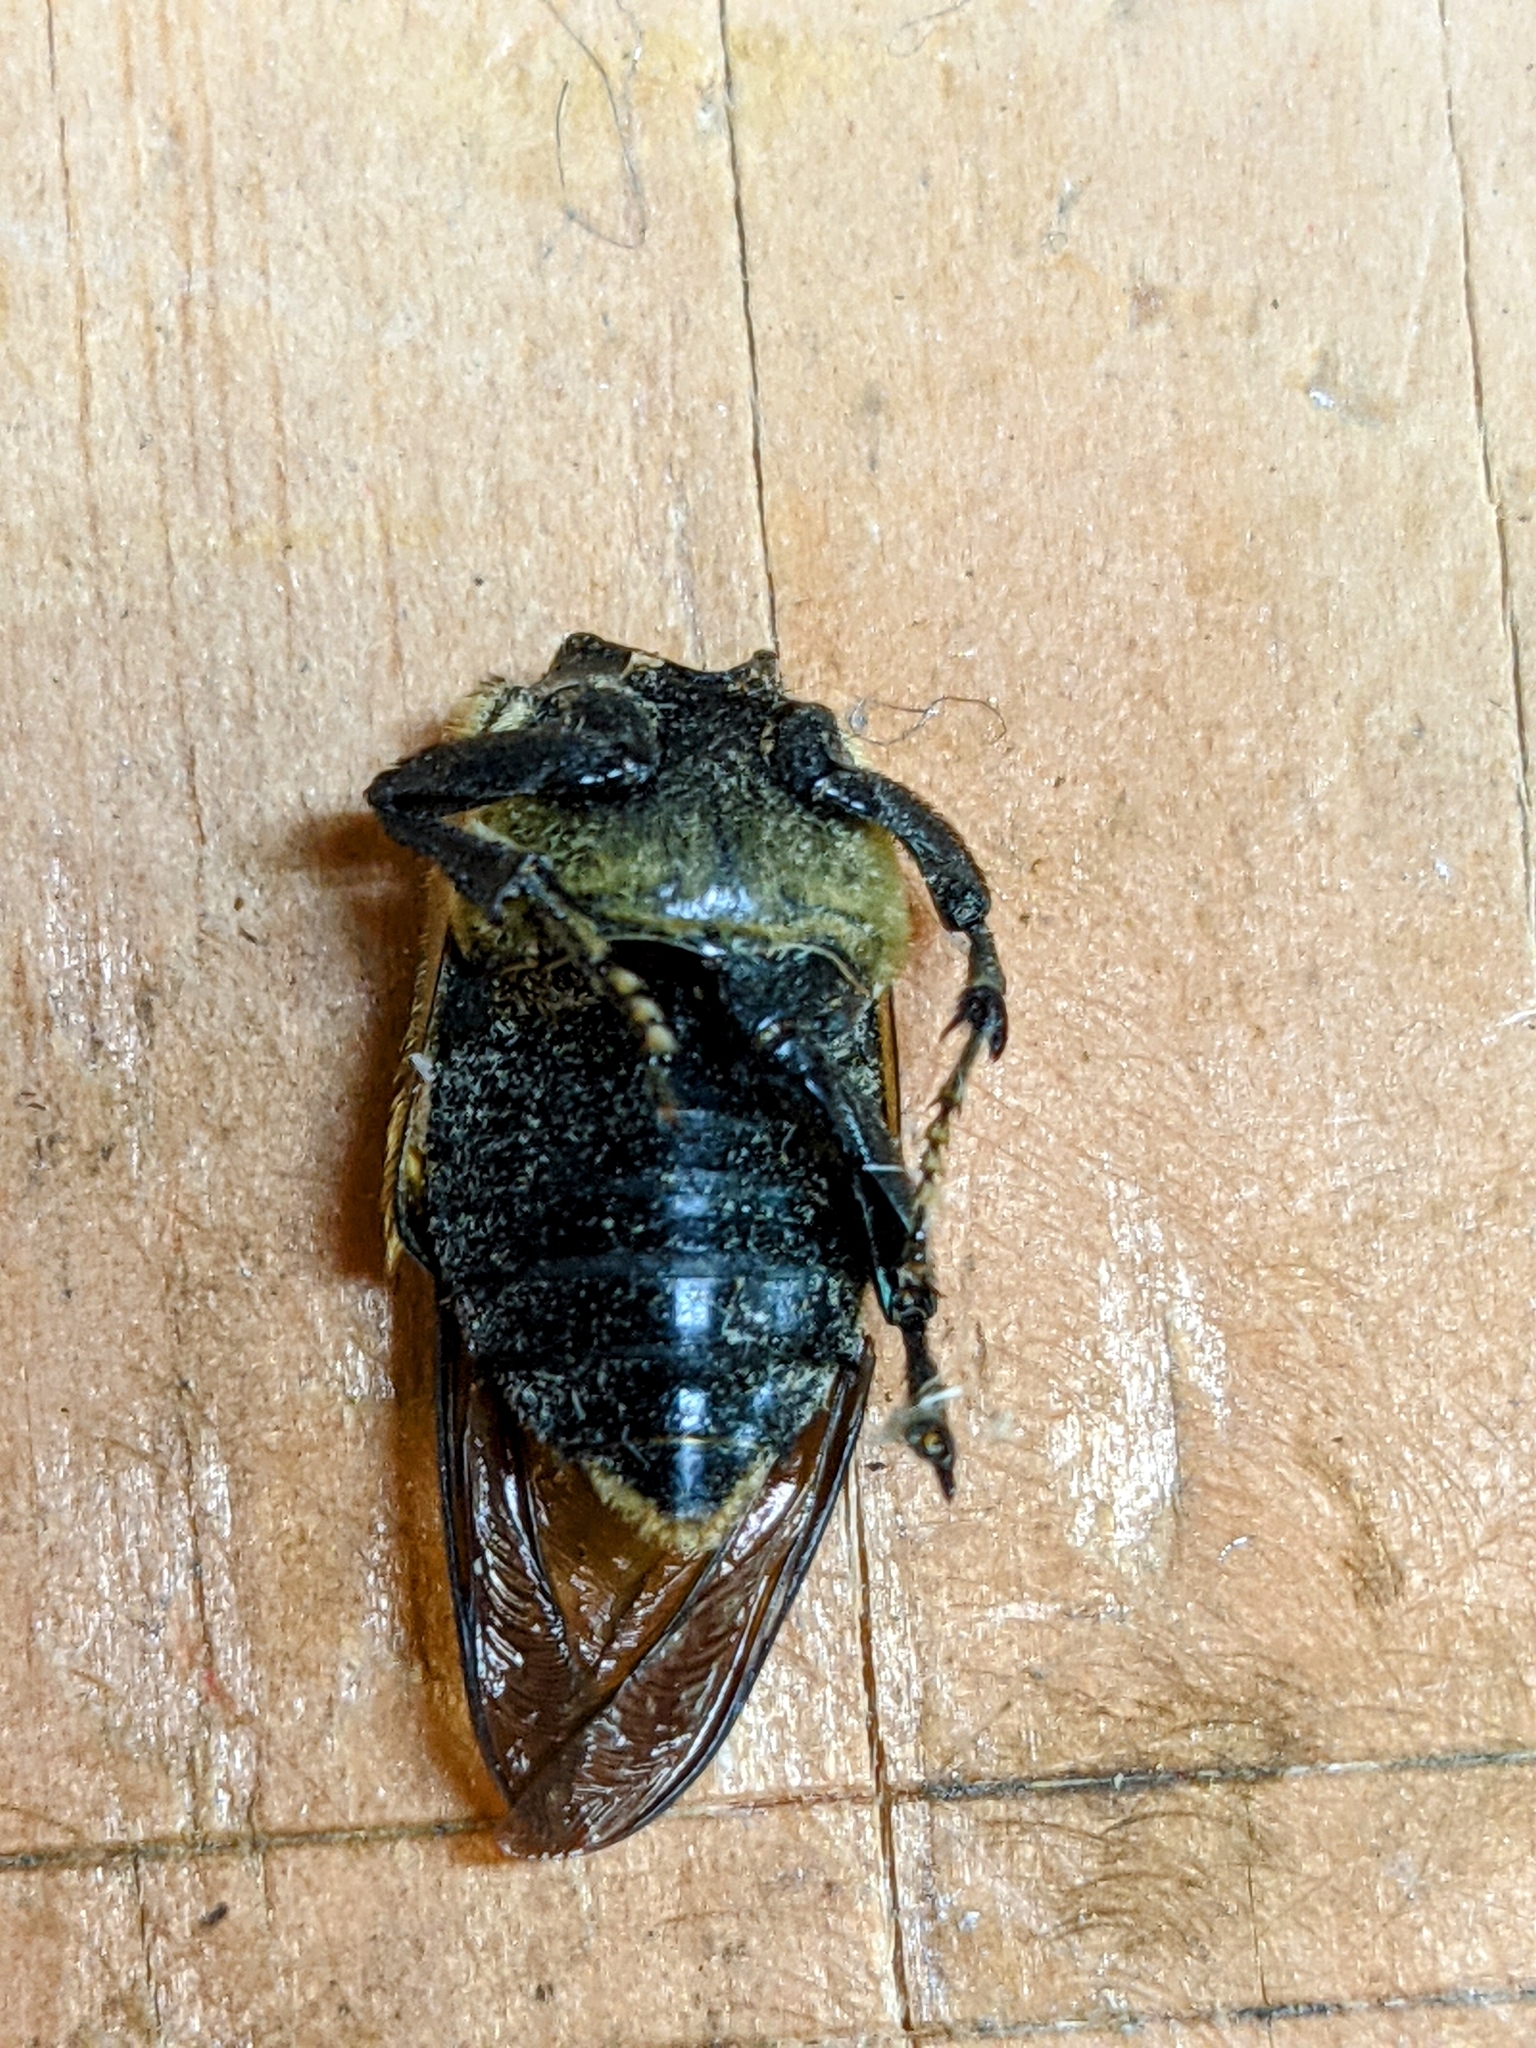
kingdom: Animalia
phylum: Arthropoda
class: Insecta
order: Coleoptera
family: Staphylinidae
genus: Nicrophorus
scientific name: Nicrophorus tomentosus
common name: Tomentose burying beetle
